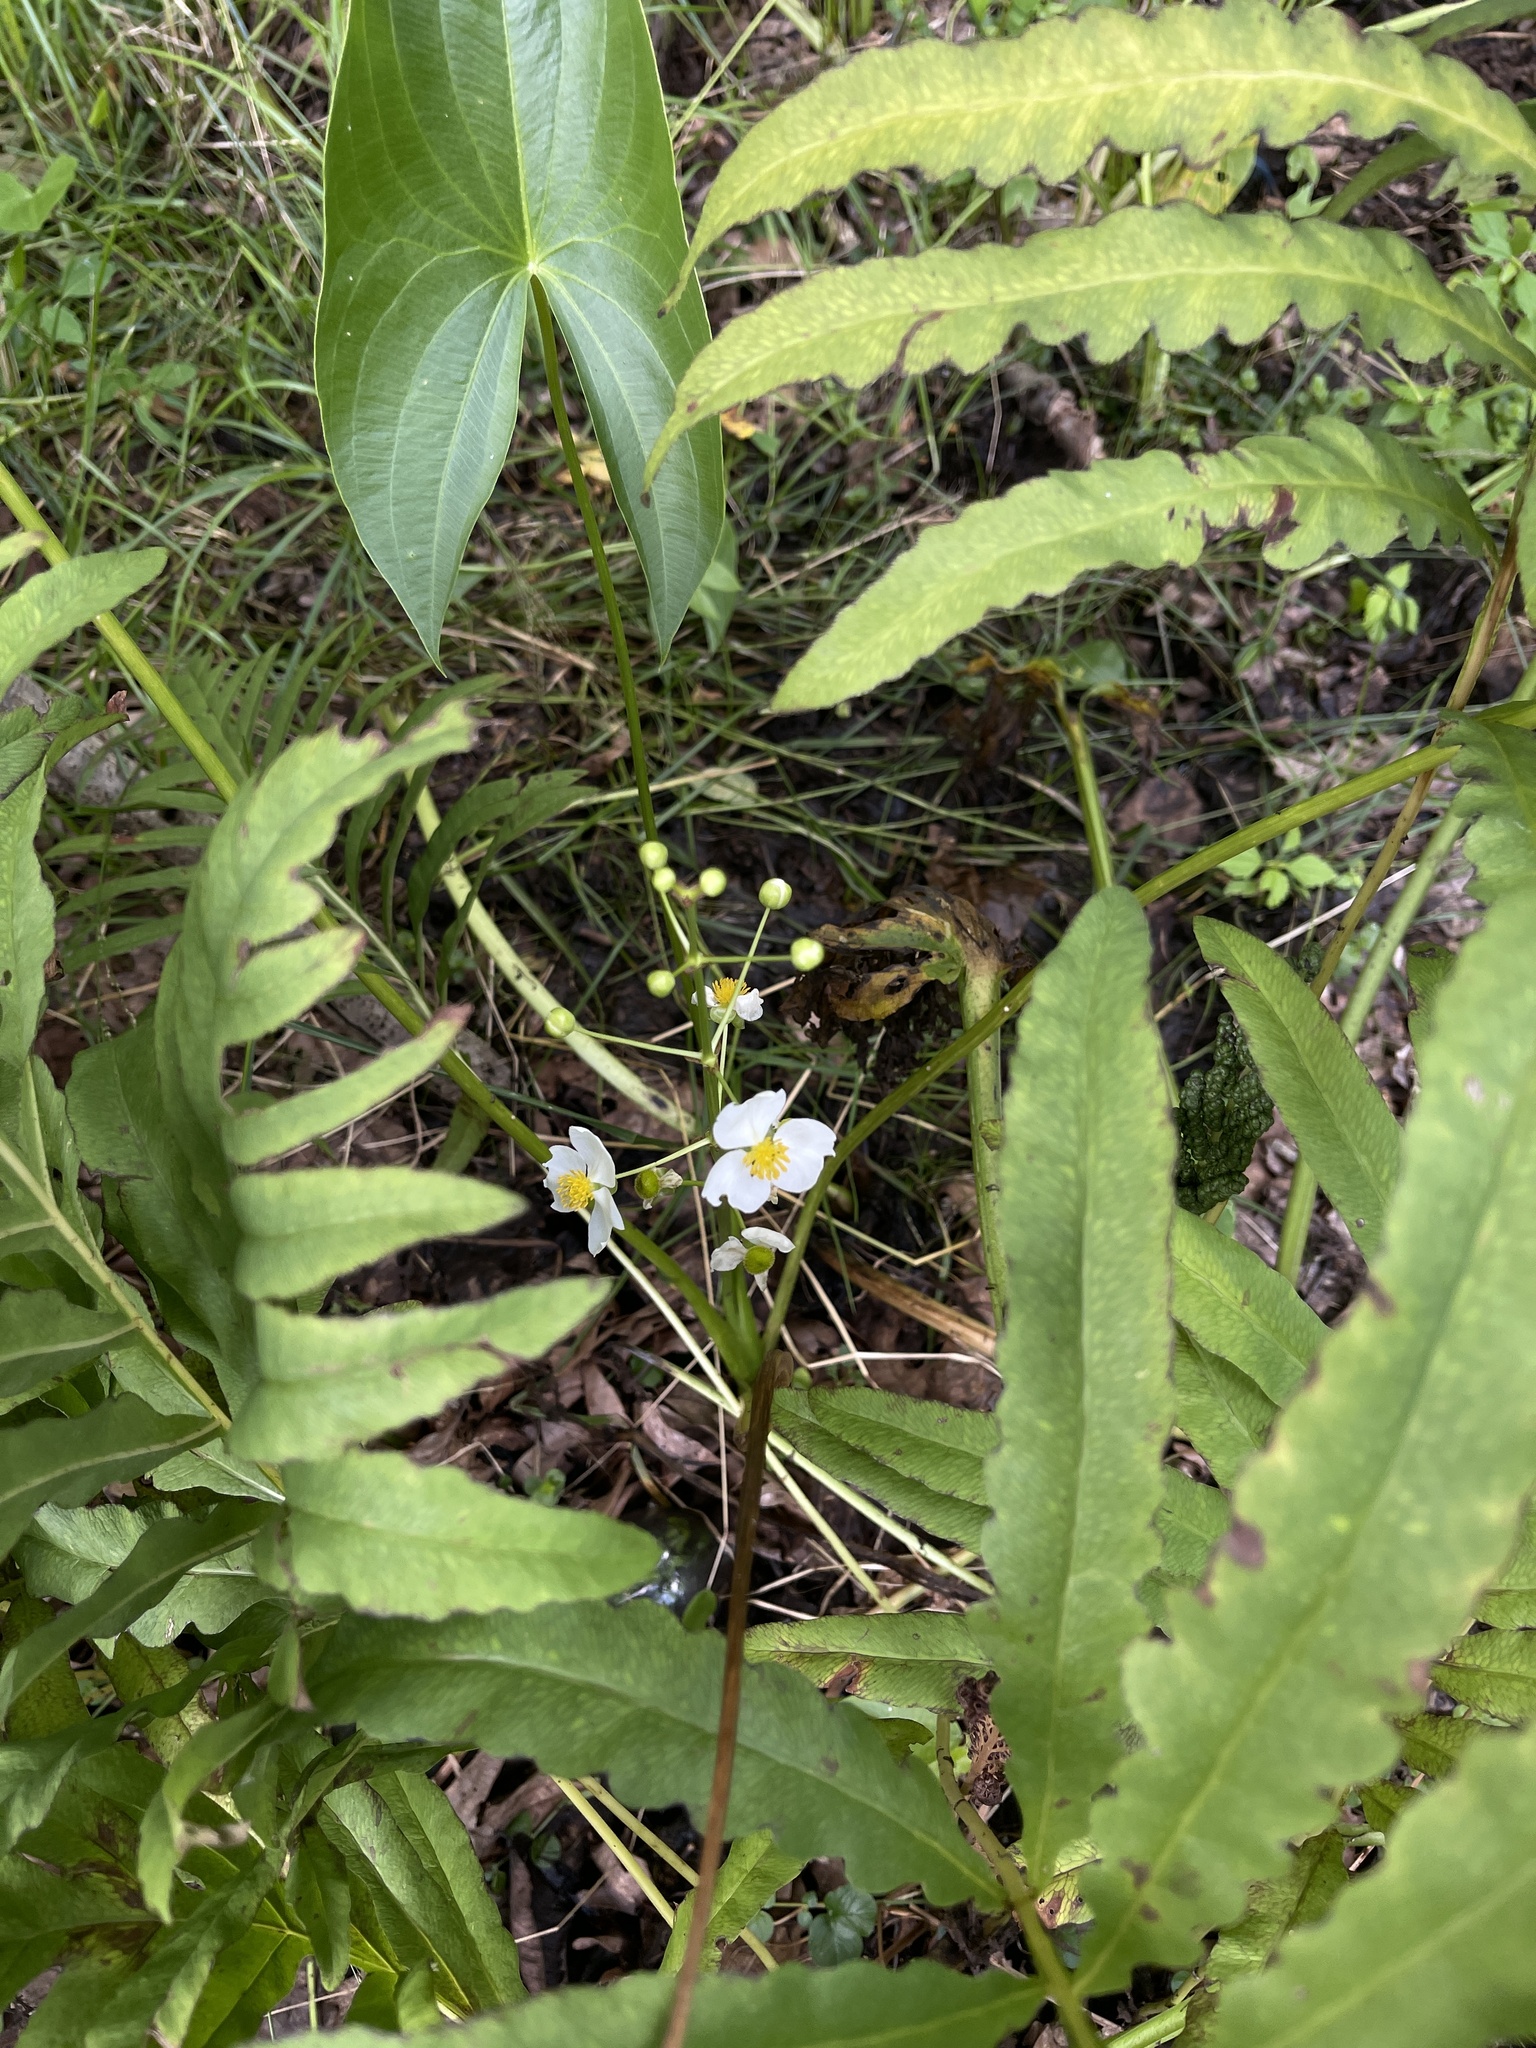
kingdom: Plantae
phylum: Tracheophyta
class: Liliopsida
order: Alismatales
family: Alismataceae
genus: Sagittaria
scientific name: Sagittaria latifolia
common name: Duck-potato
